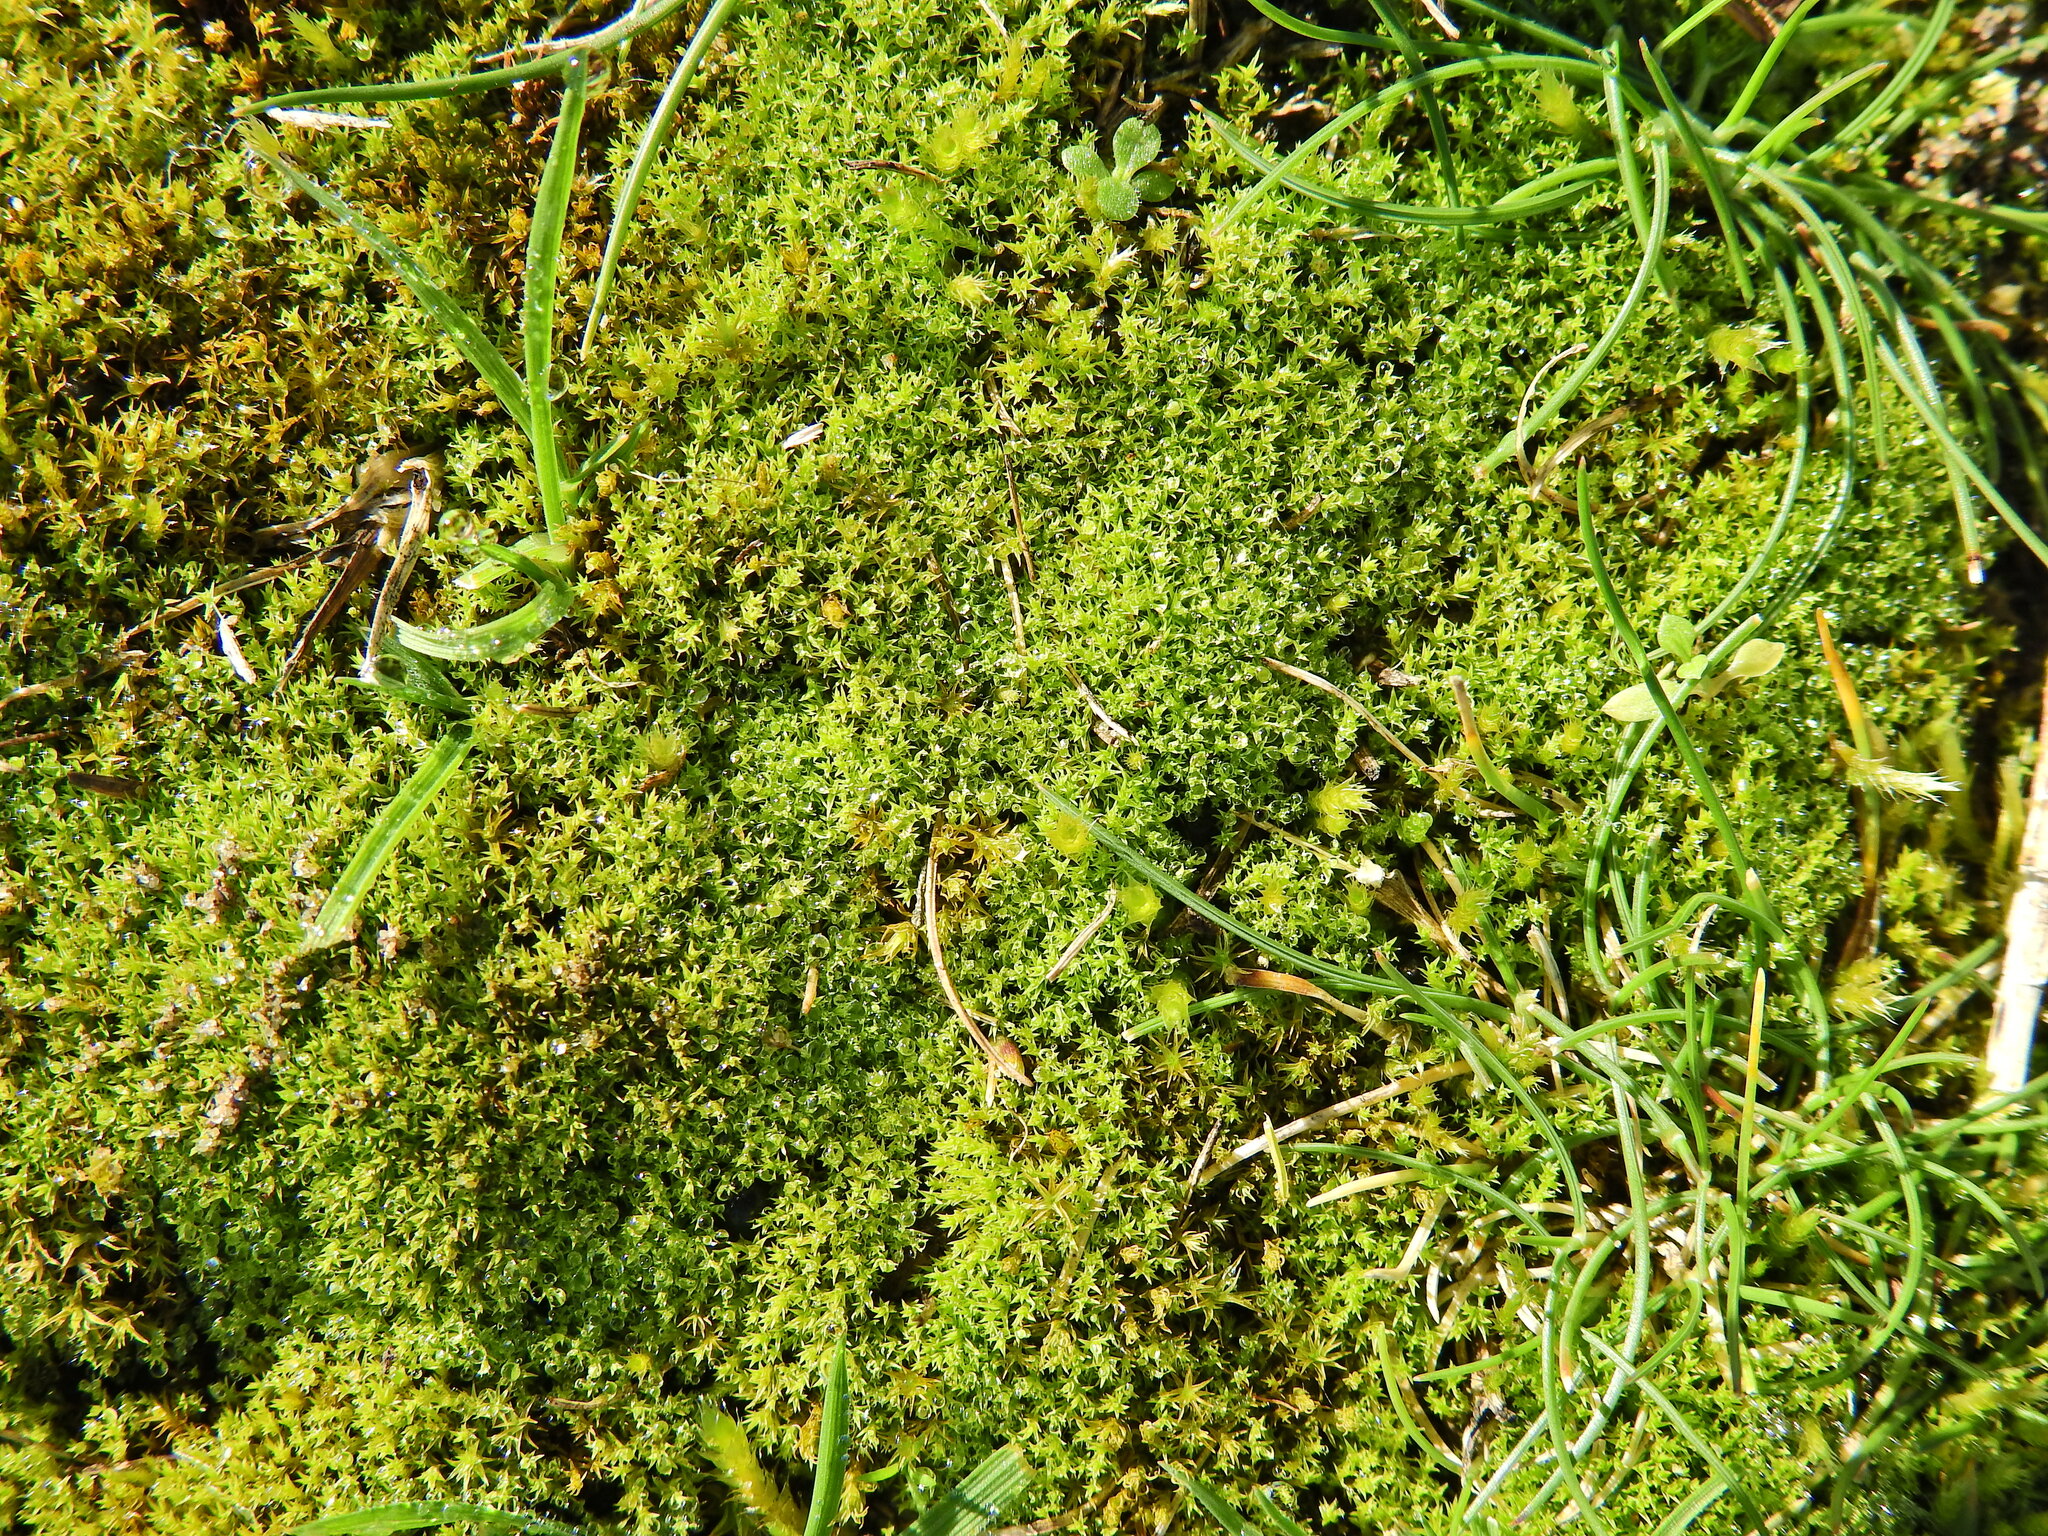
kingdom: Plantae
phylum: Tracheophyta
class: Magnoliopsida
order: Caryophyllales
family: Montiaceae
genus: Montia
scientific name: Montia fontana
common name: Blinks
